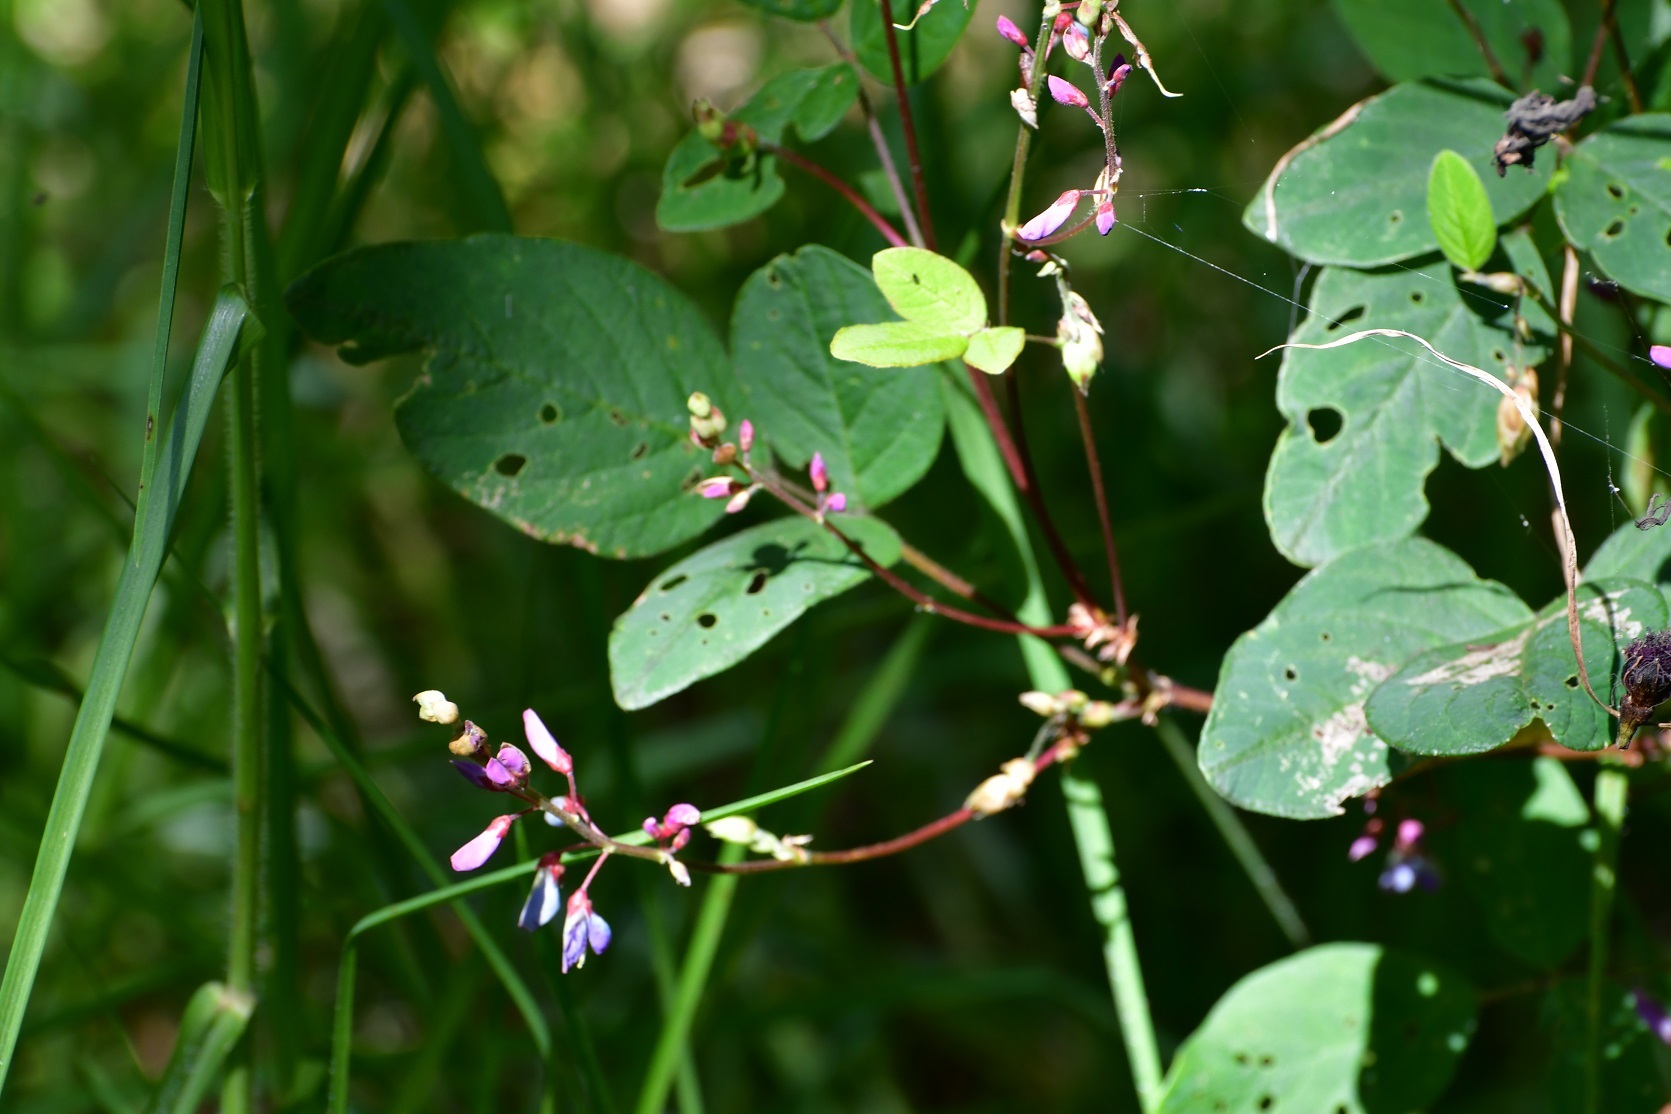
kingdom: Plantae
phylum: Tracheophyta
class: Magnoliopsida
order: Fabales
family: Fabaceae
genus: Desmodium
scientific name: Desmodium pringlei
